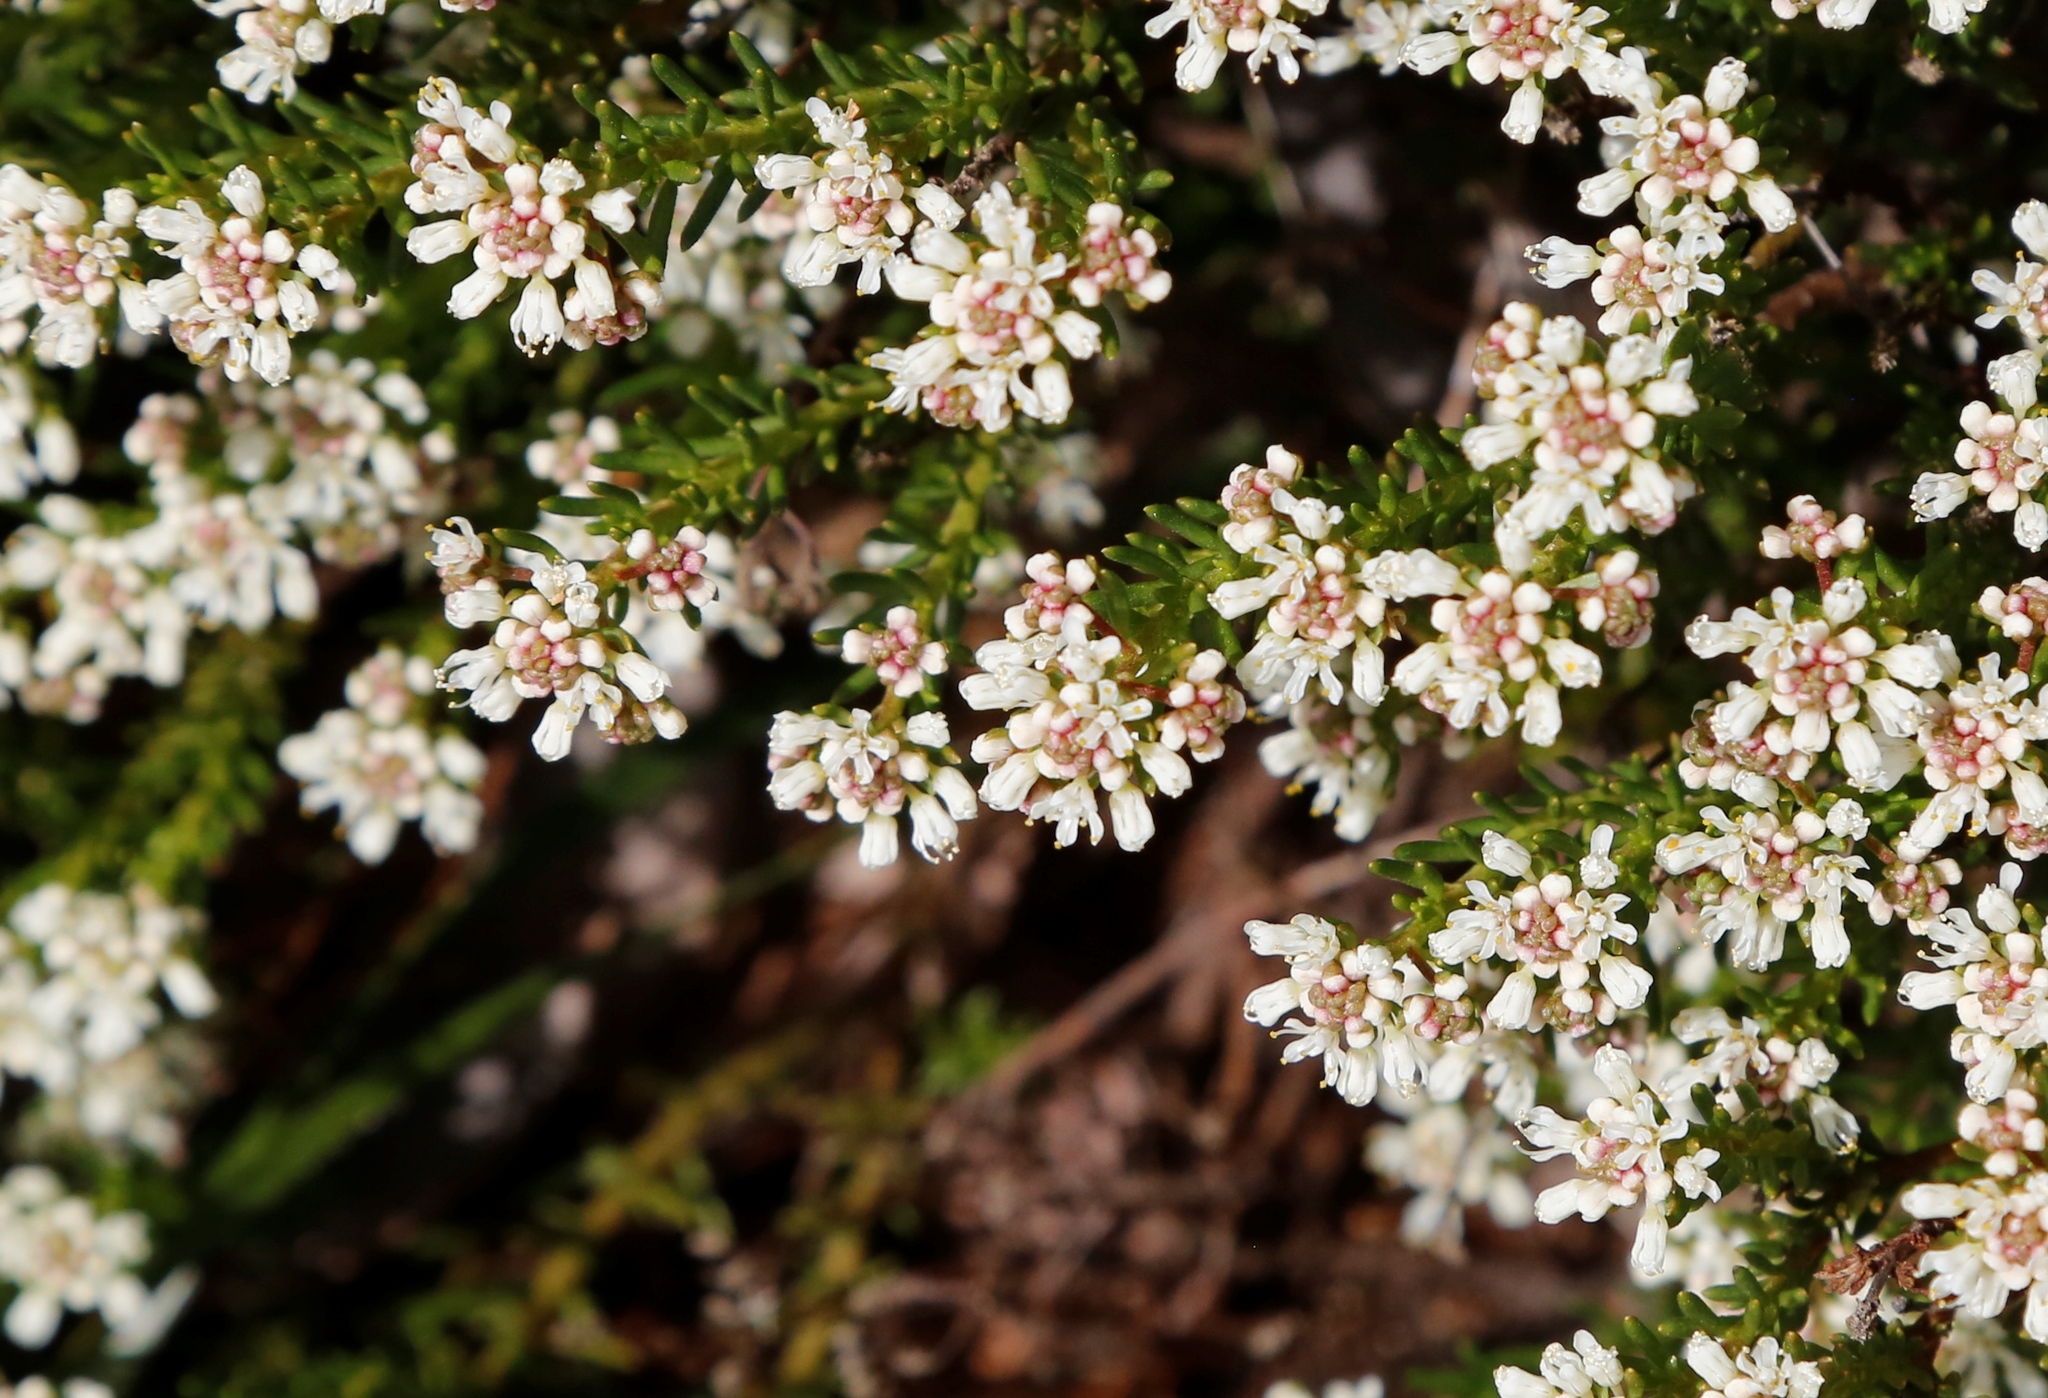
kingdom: Plantae
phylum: Tracheophyta
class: Magnoliopsida
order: Malpighiales
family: Phyllanthaceae
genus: Poranthera
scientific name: Poranthera ericoides
